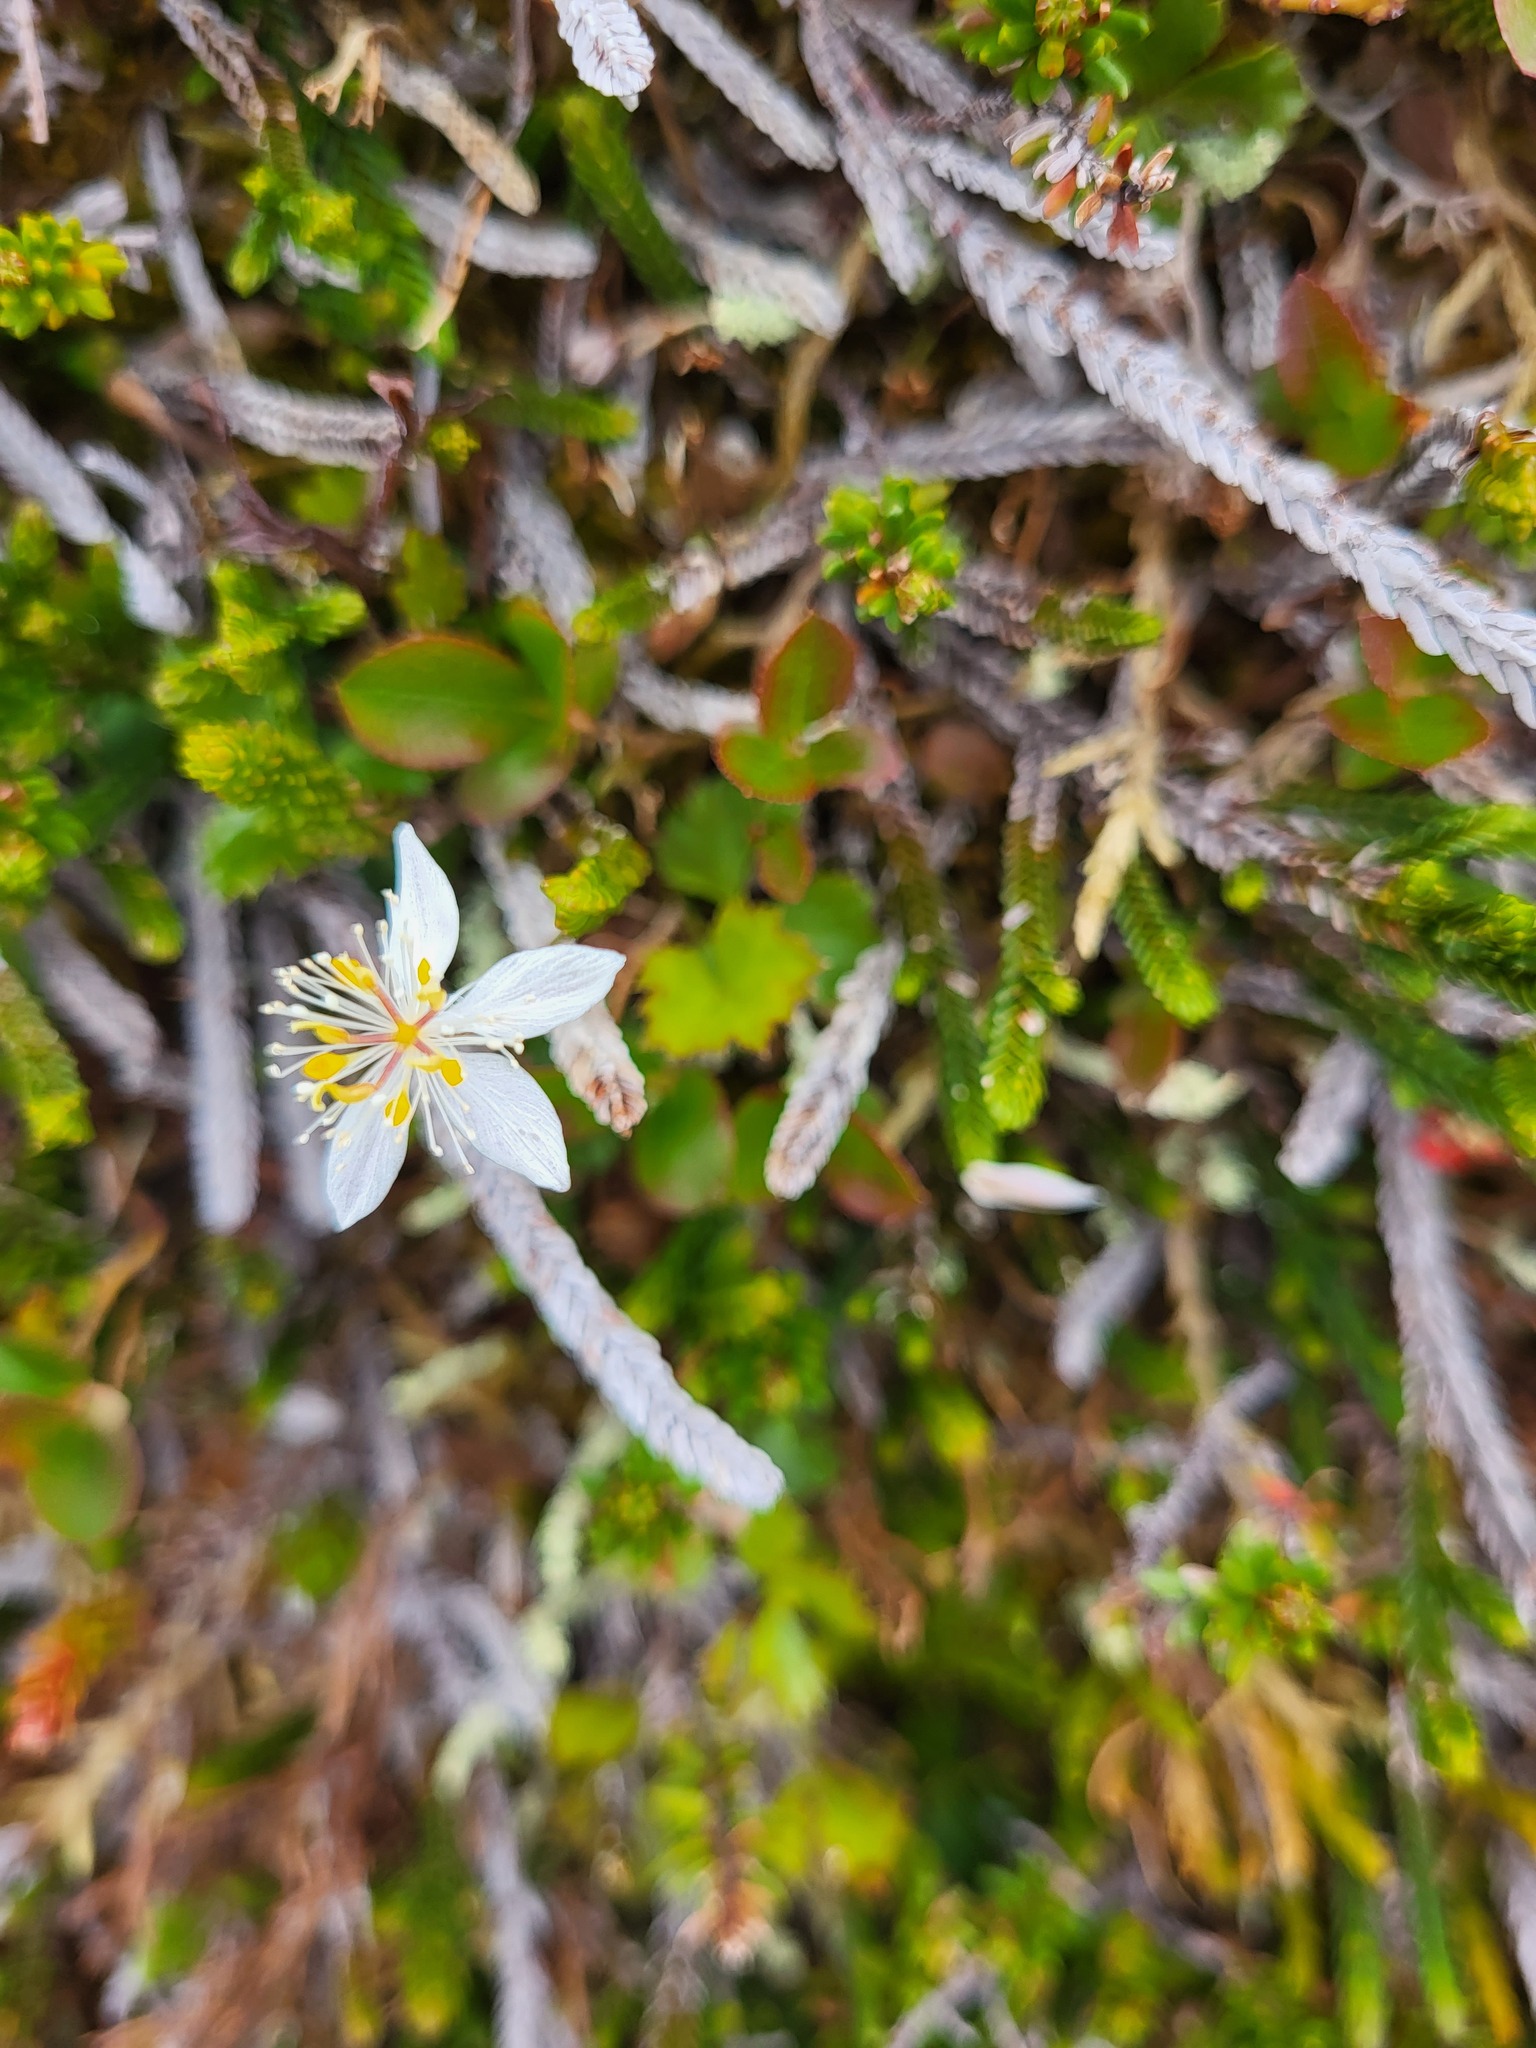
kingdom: Plantae
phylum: Tracheophyta
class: Magnoliopsida
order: Ranunculales
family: Ranunculaceae
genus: Coptis
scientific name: Coptis trifolia
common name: Canker-root
